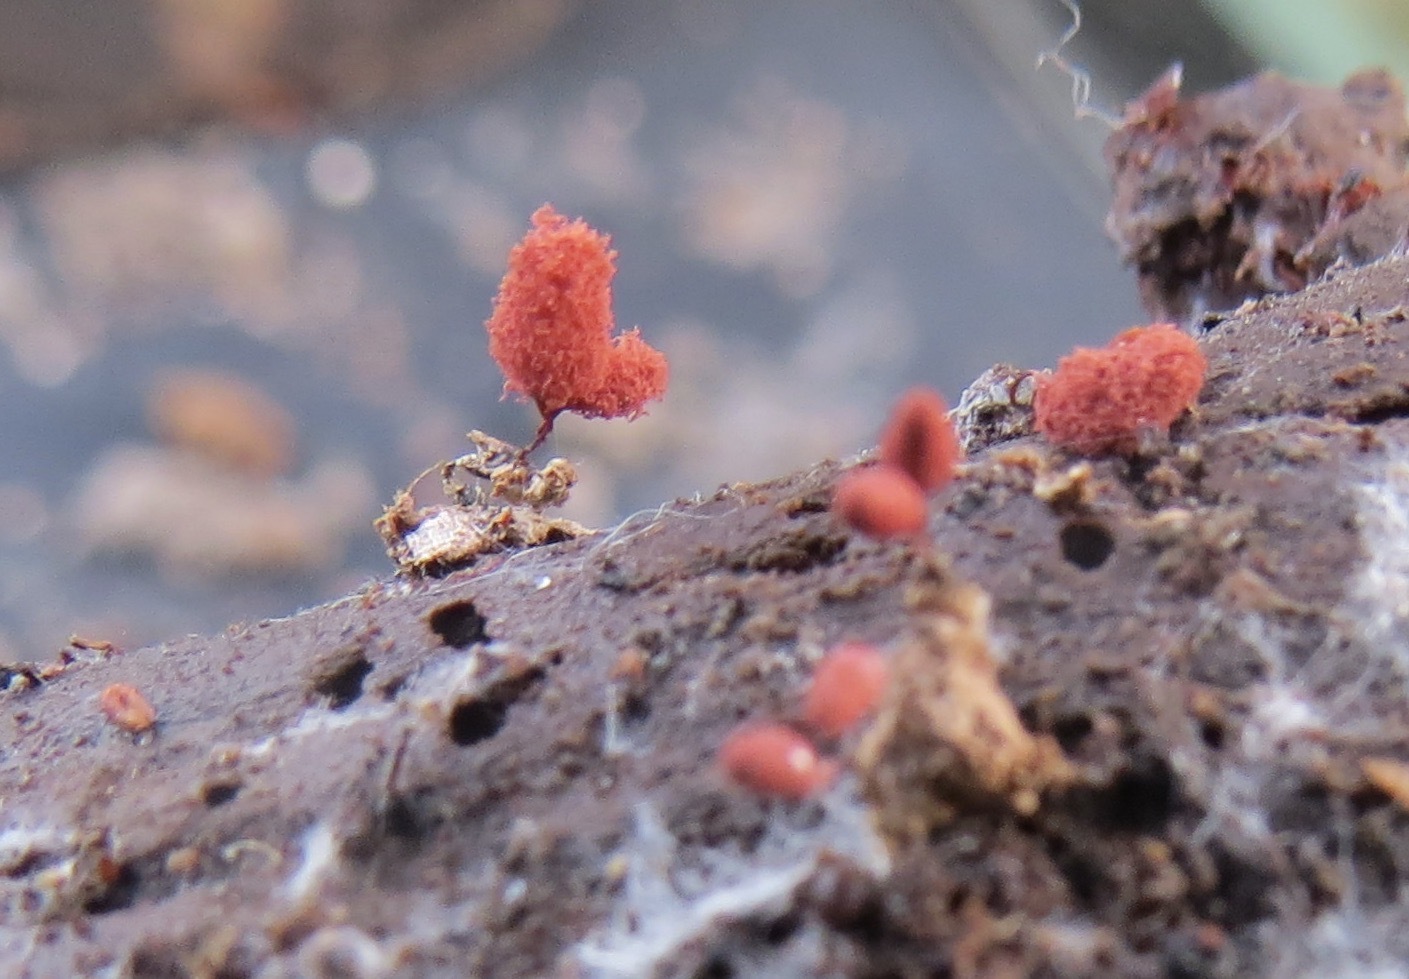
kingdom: Protozoa
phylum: Mycetozoa
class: Myxomycetes
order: Trichiales
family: Arcyriaceae
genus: Arcyria
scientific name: Arcyria denudata
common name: Carnival candy slime mold
